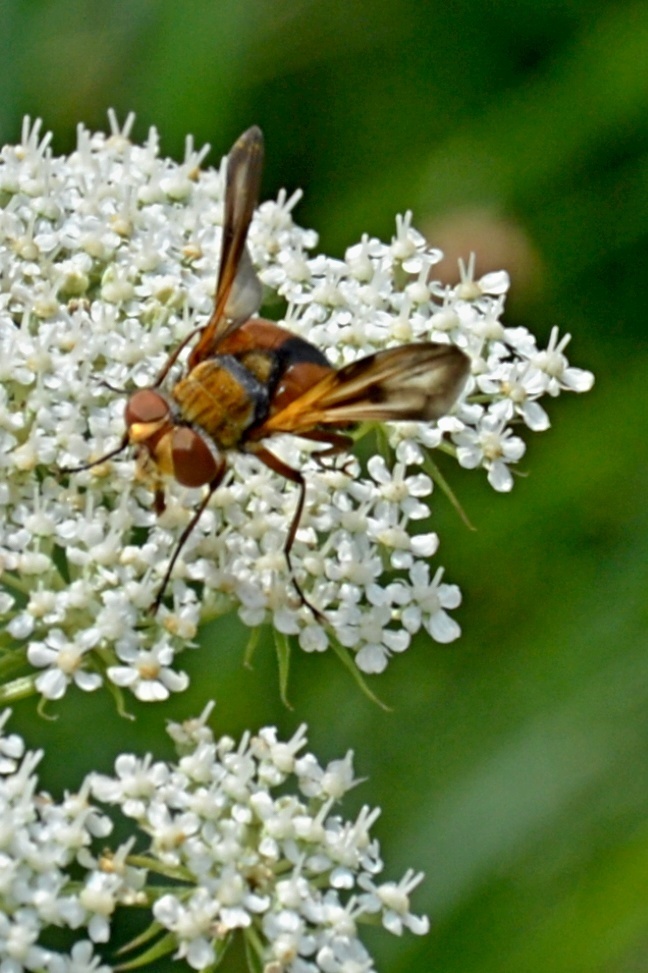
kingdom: Animalia
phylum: Arthropoda
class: Insecta
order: Diptera
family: Tachinidae
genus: Ectophasia
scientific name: Ectophasia crassipennis
